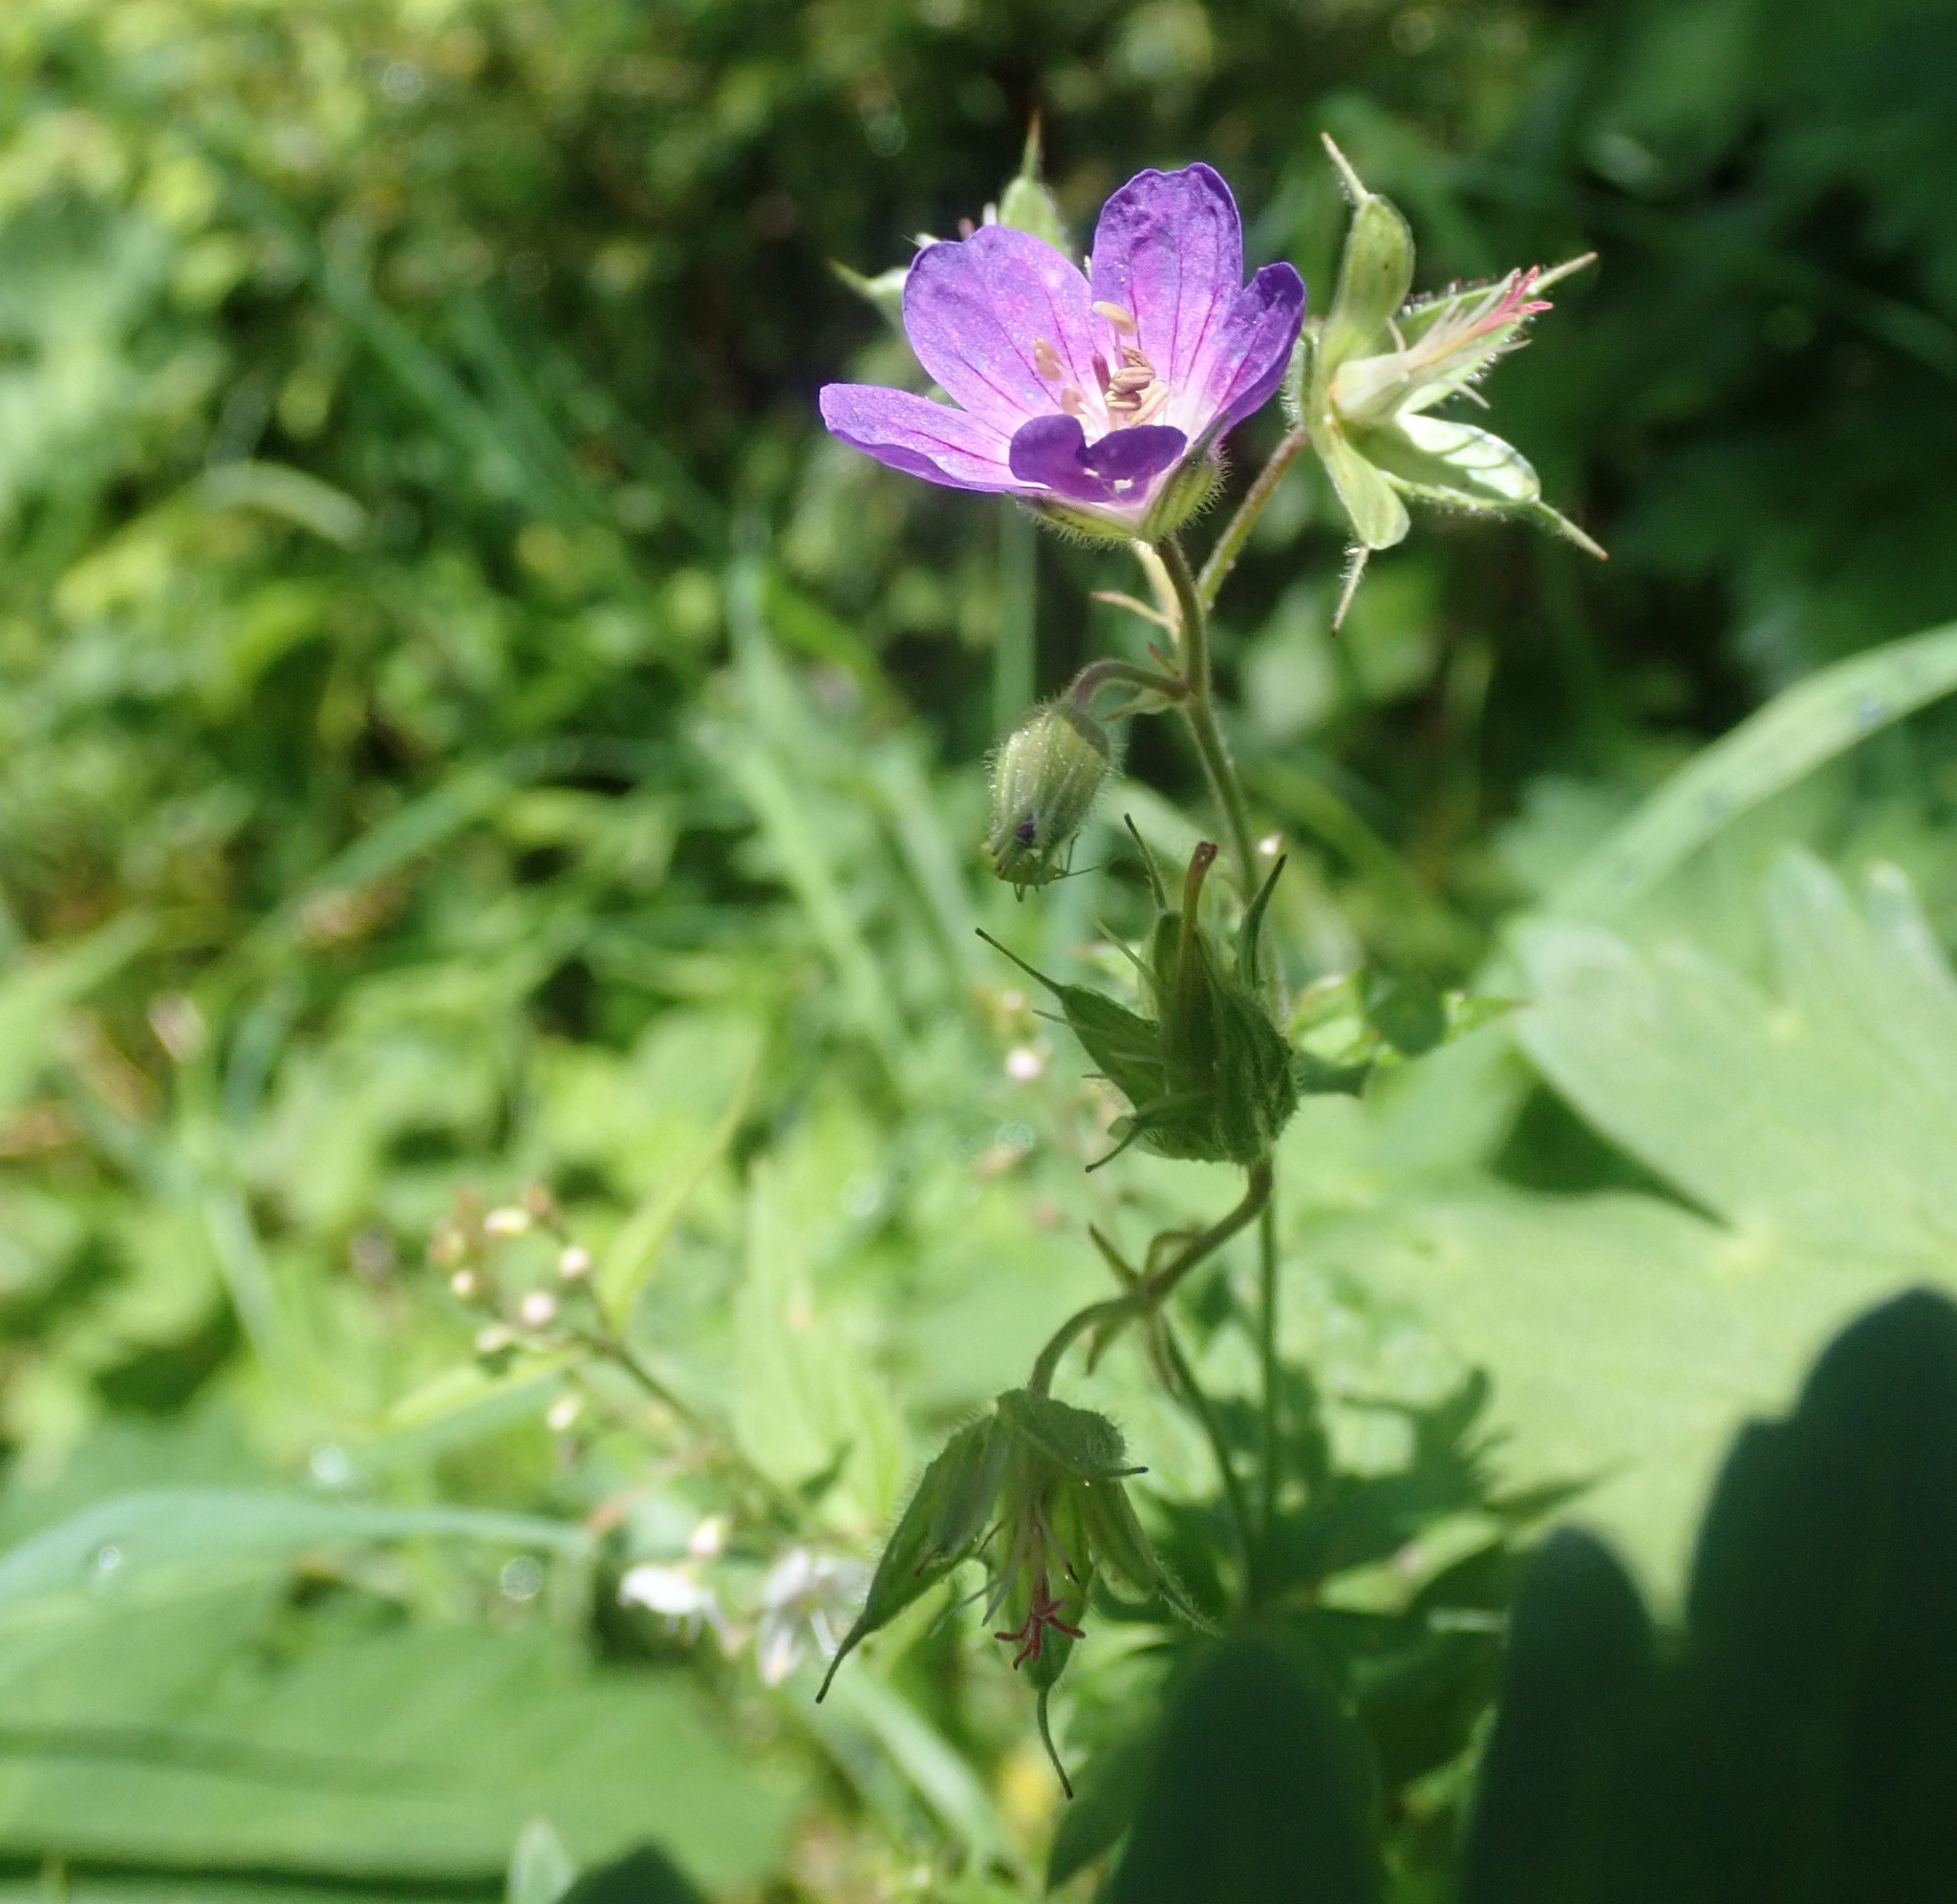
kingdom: Plantae
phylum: Tracheophyta
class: Magnoliopsida
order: Geraniales
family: Geraniaceae
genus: Geranium
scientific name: Geranium sylvaticum
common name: Wood crane's-bill
